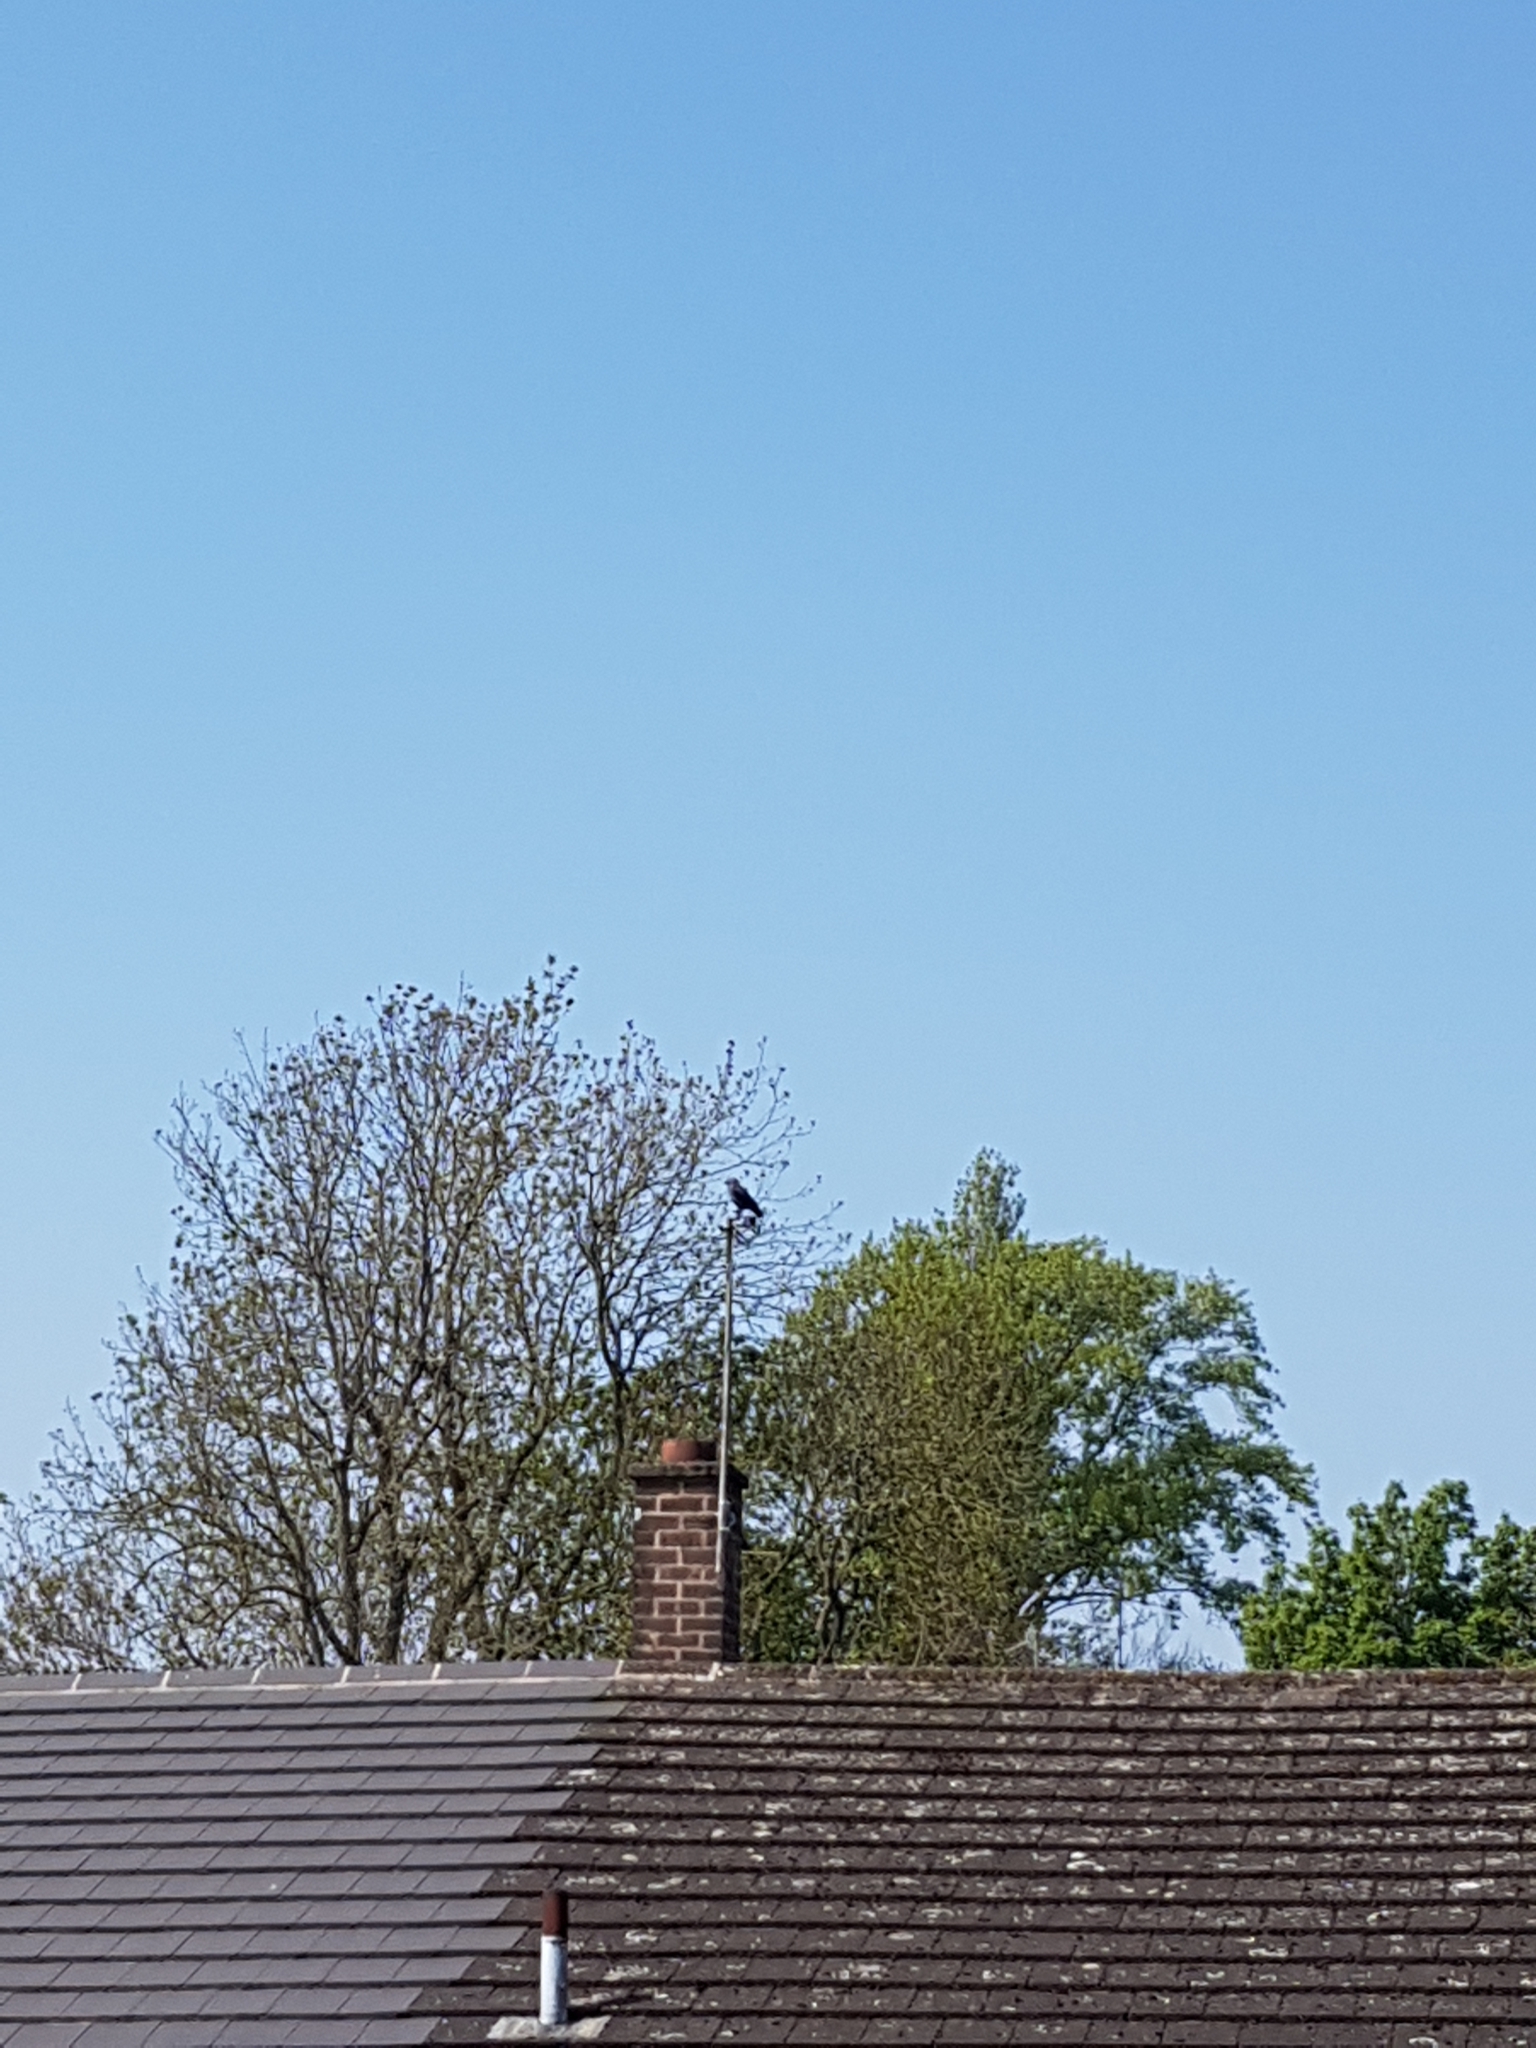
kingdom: Animalia
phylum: Chordata
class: Aves
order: Passeriformes
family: Corvidae
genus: Coloeus
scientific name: Coloeus monedula
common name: Western jackdaw
